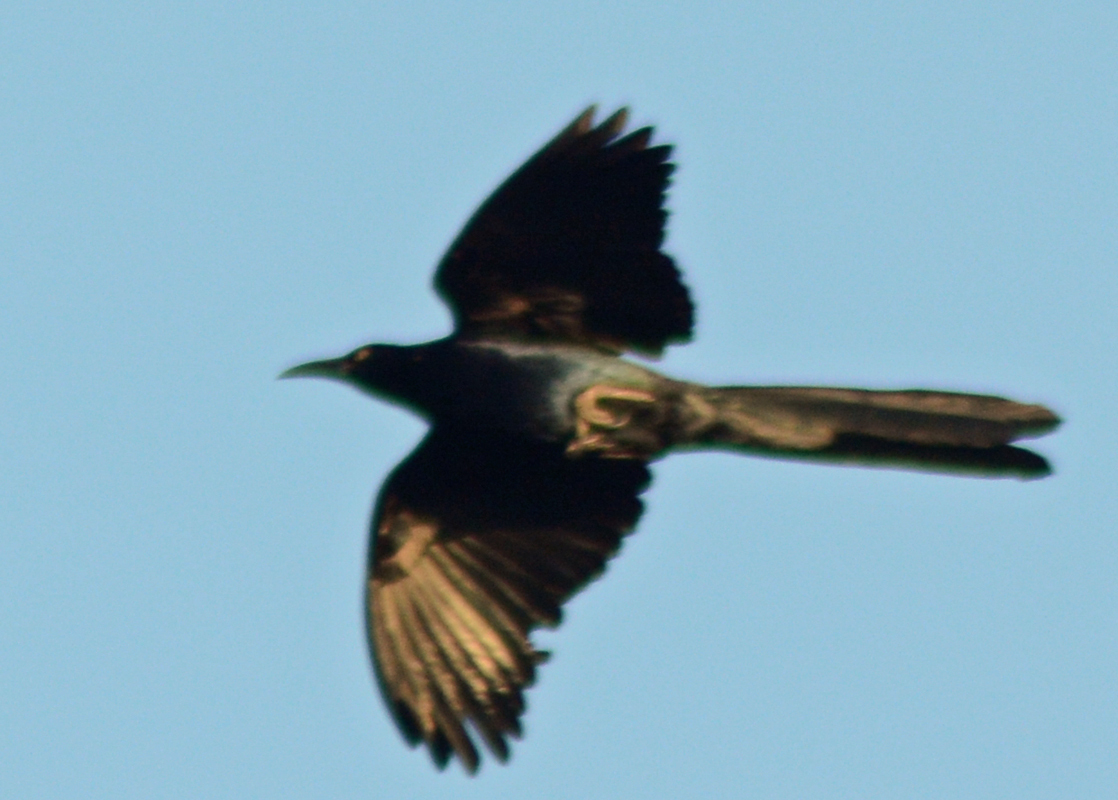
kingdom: Animalia
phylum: Chordata
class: Aves
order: Passeriformes
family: Icteridae
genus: Quiscalus
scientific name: Quiscalus mexicanus
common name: Great-tailed grackle
